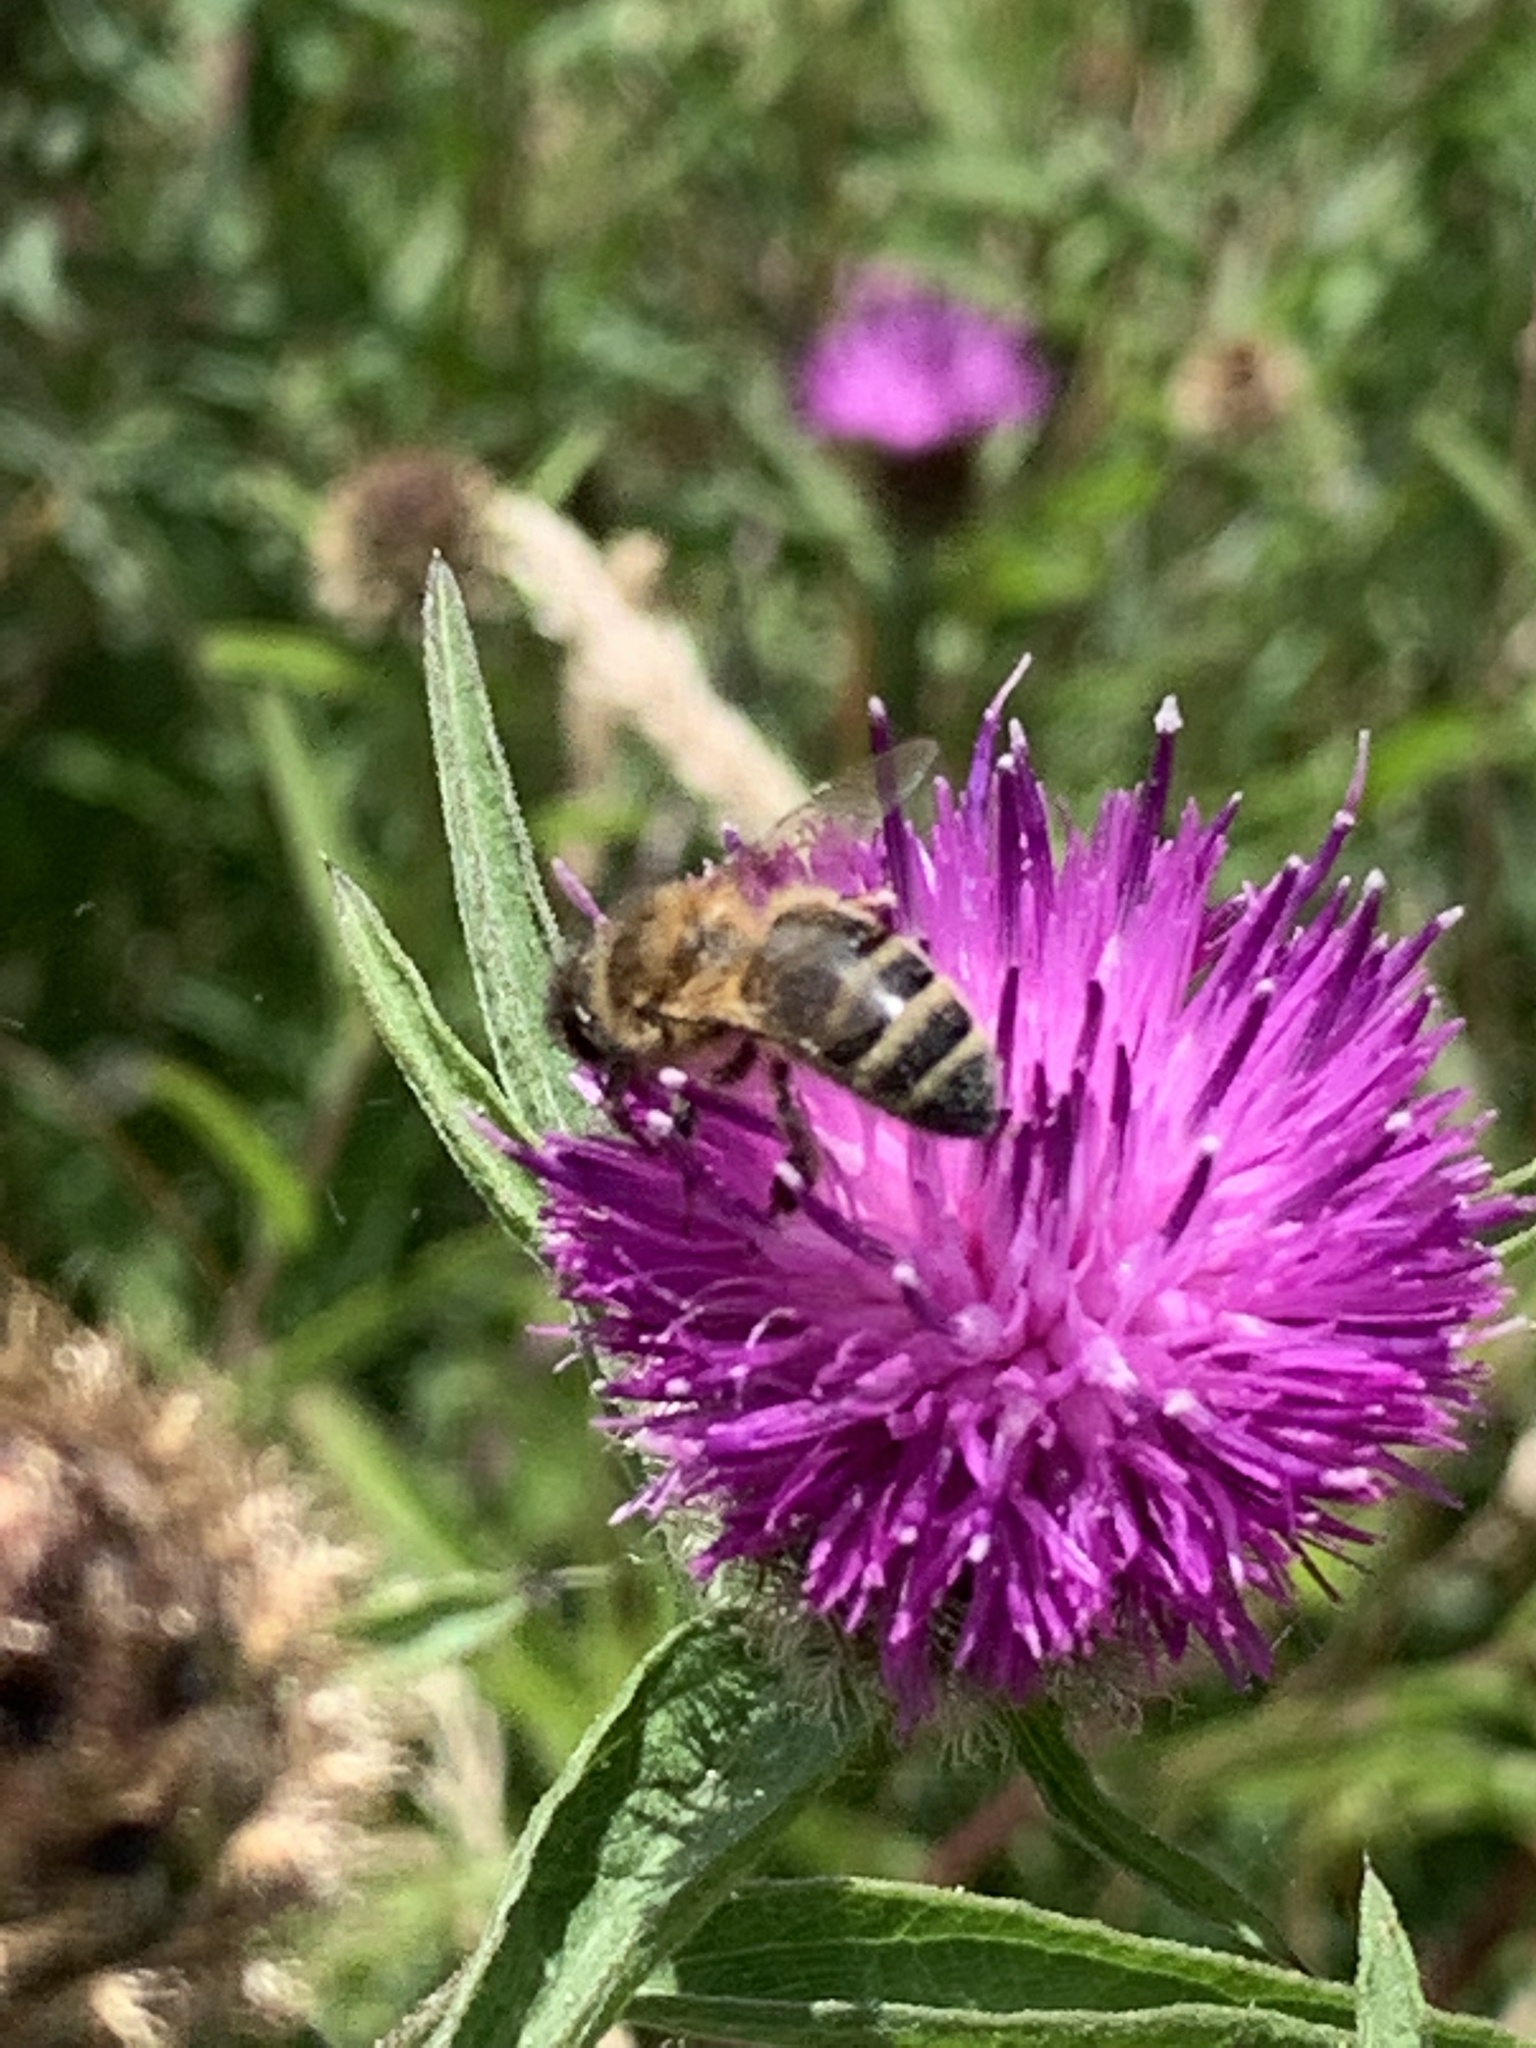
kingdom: Animalia
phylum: Arthropoda
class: Insecta
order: Hymenoptera
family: Apidae
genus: Apis
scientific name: Apis mellifera
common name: Honey bee
